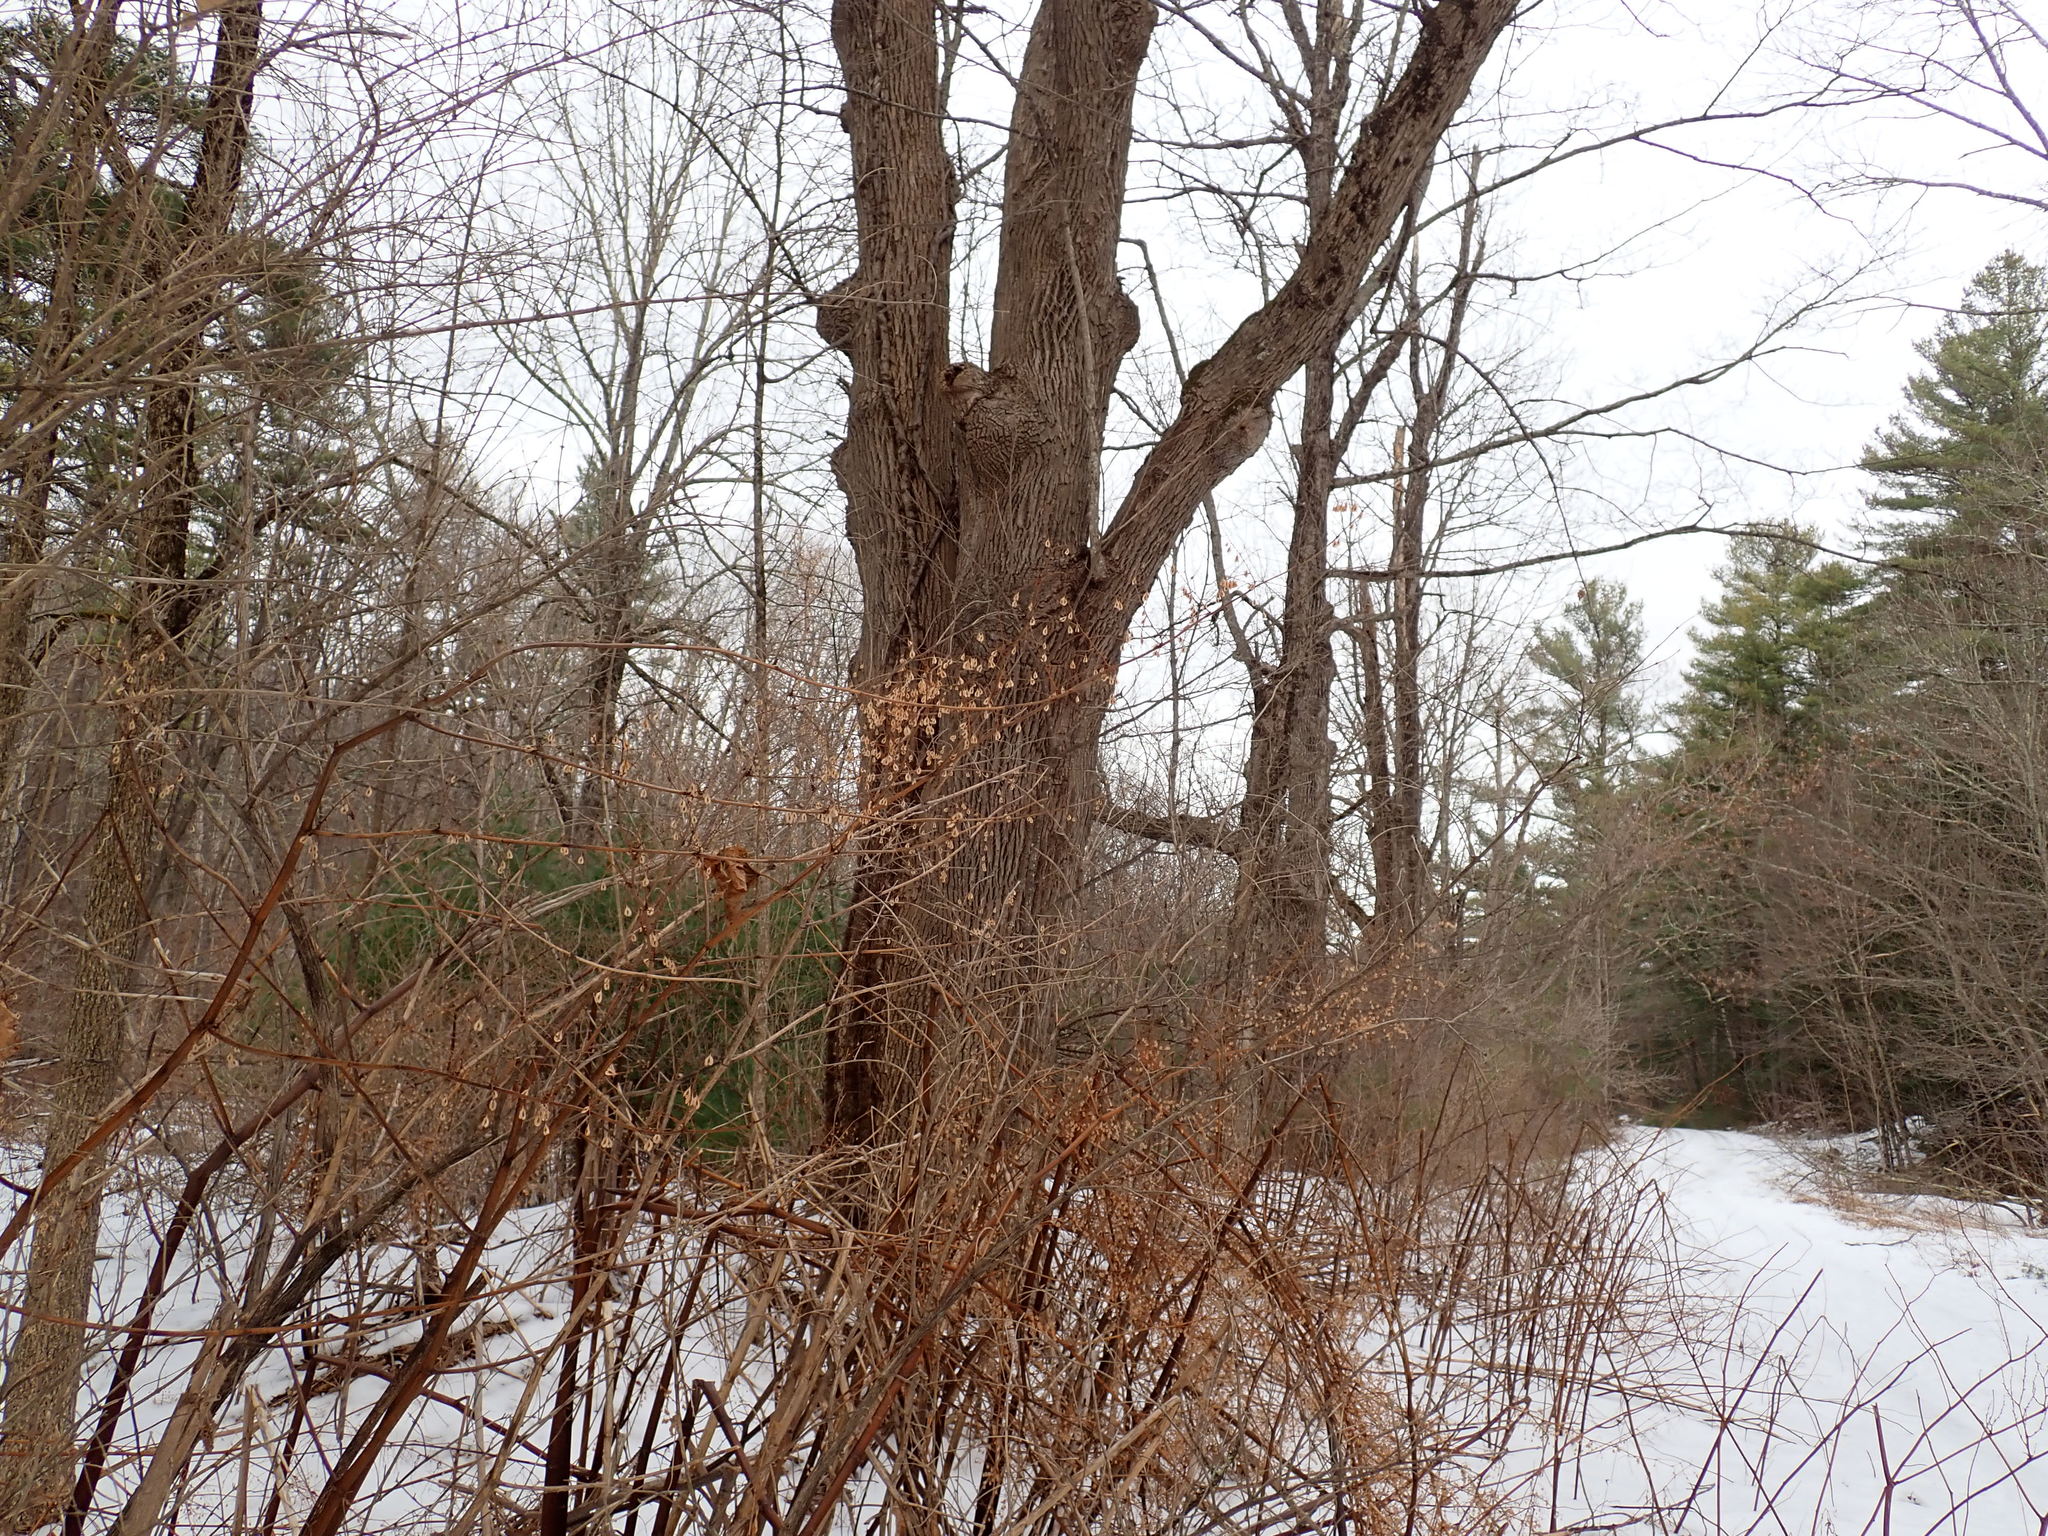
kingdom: Plantae
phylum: Tracheophyta
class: Magnoliopsida
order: Caryophyllales
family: Polygonaceae
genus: Reynoutria
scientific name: Reynoutria
